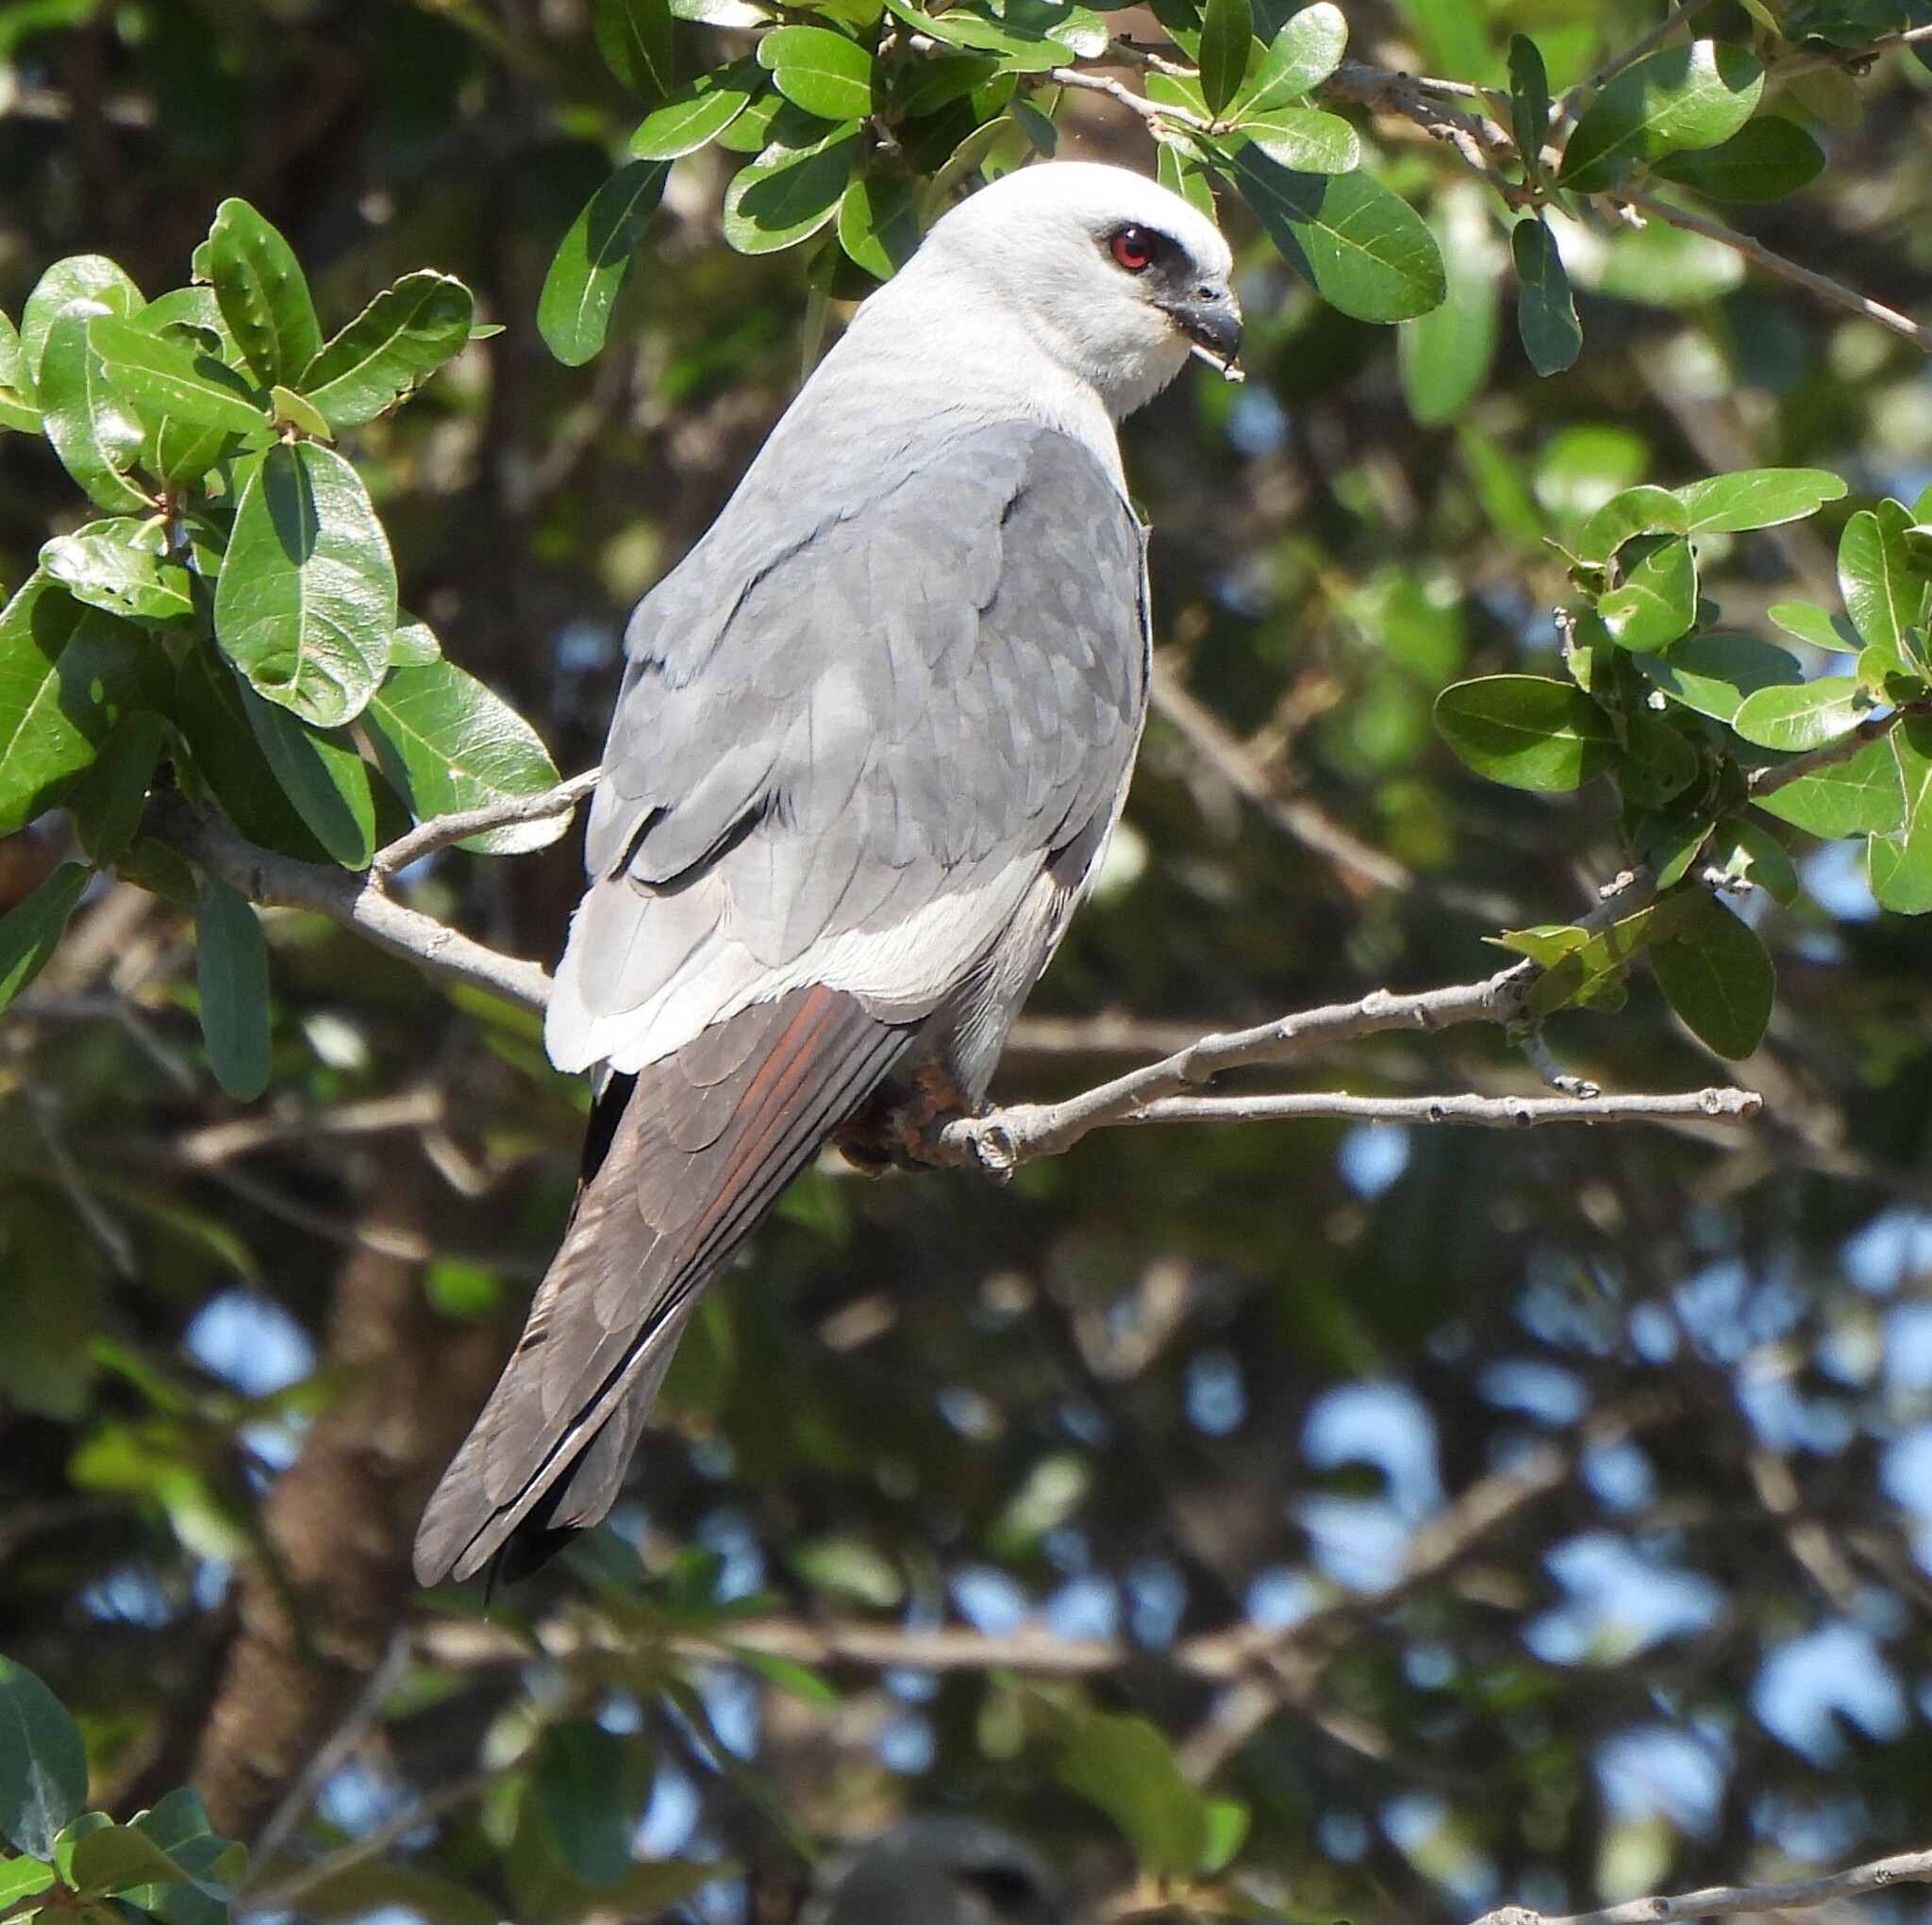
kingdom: Animalia
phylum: Chordata
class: Aves
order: Accipitriformes
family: Accipitridae
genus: Ictinia
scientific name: Ictinia mississippiensis
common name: Mississippi kite
